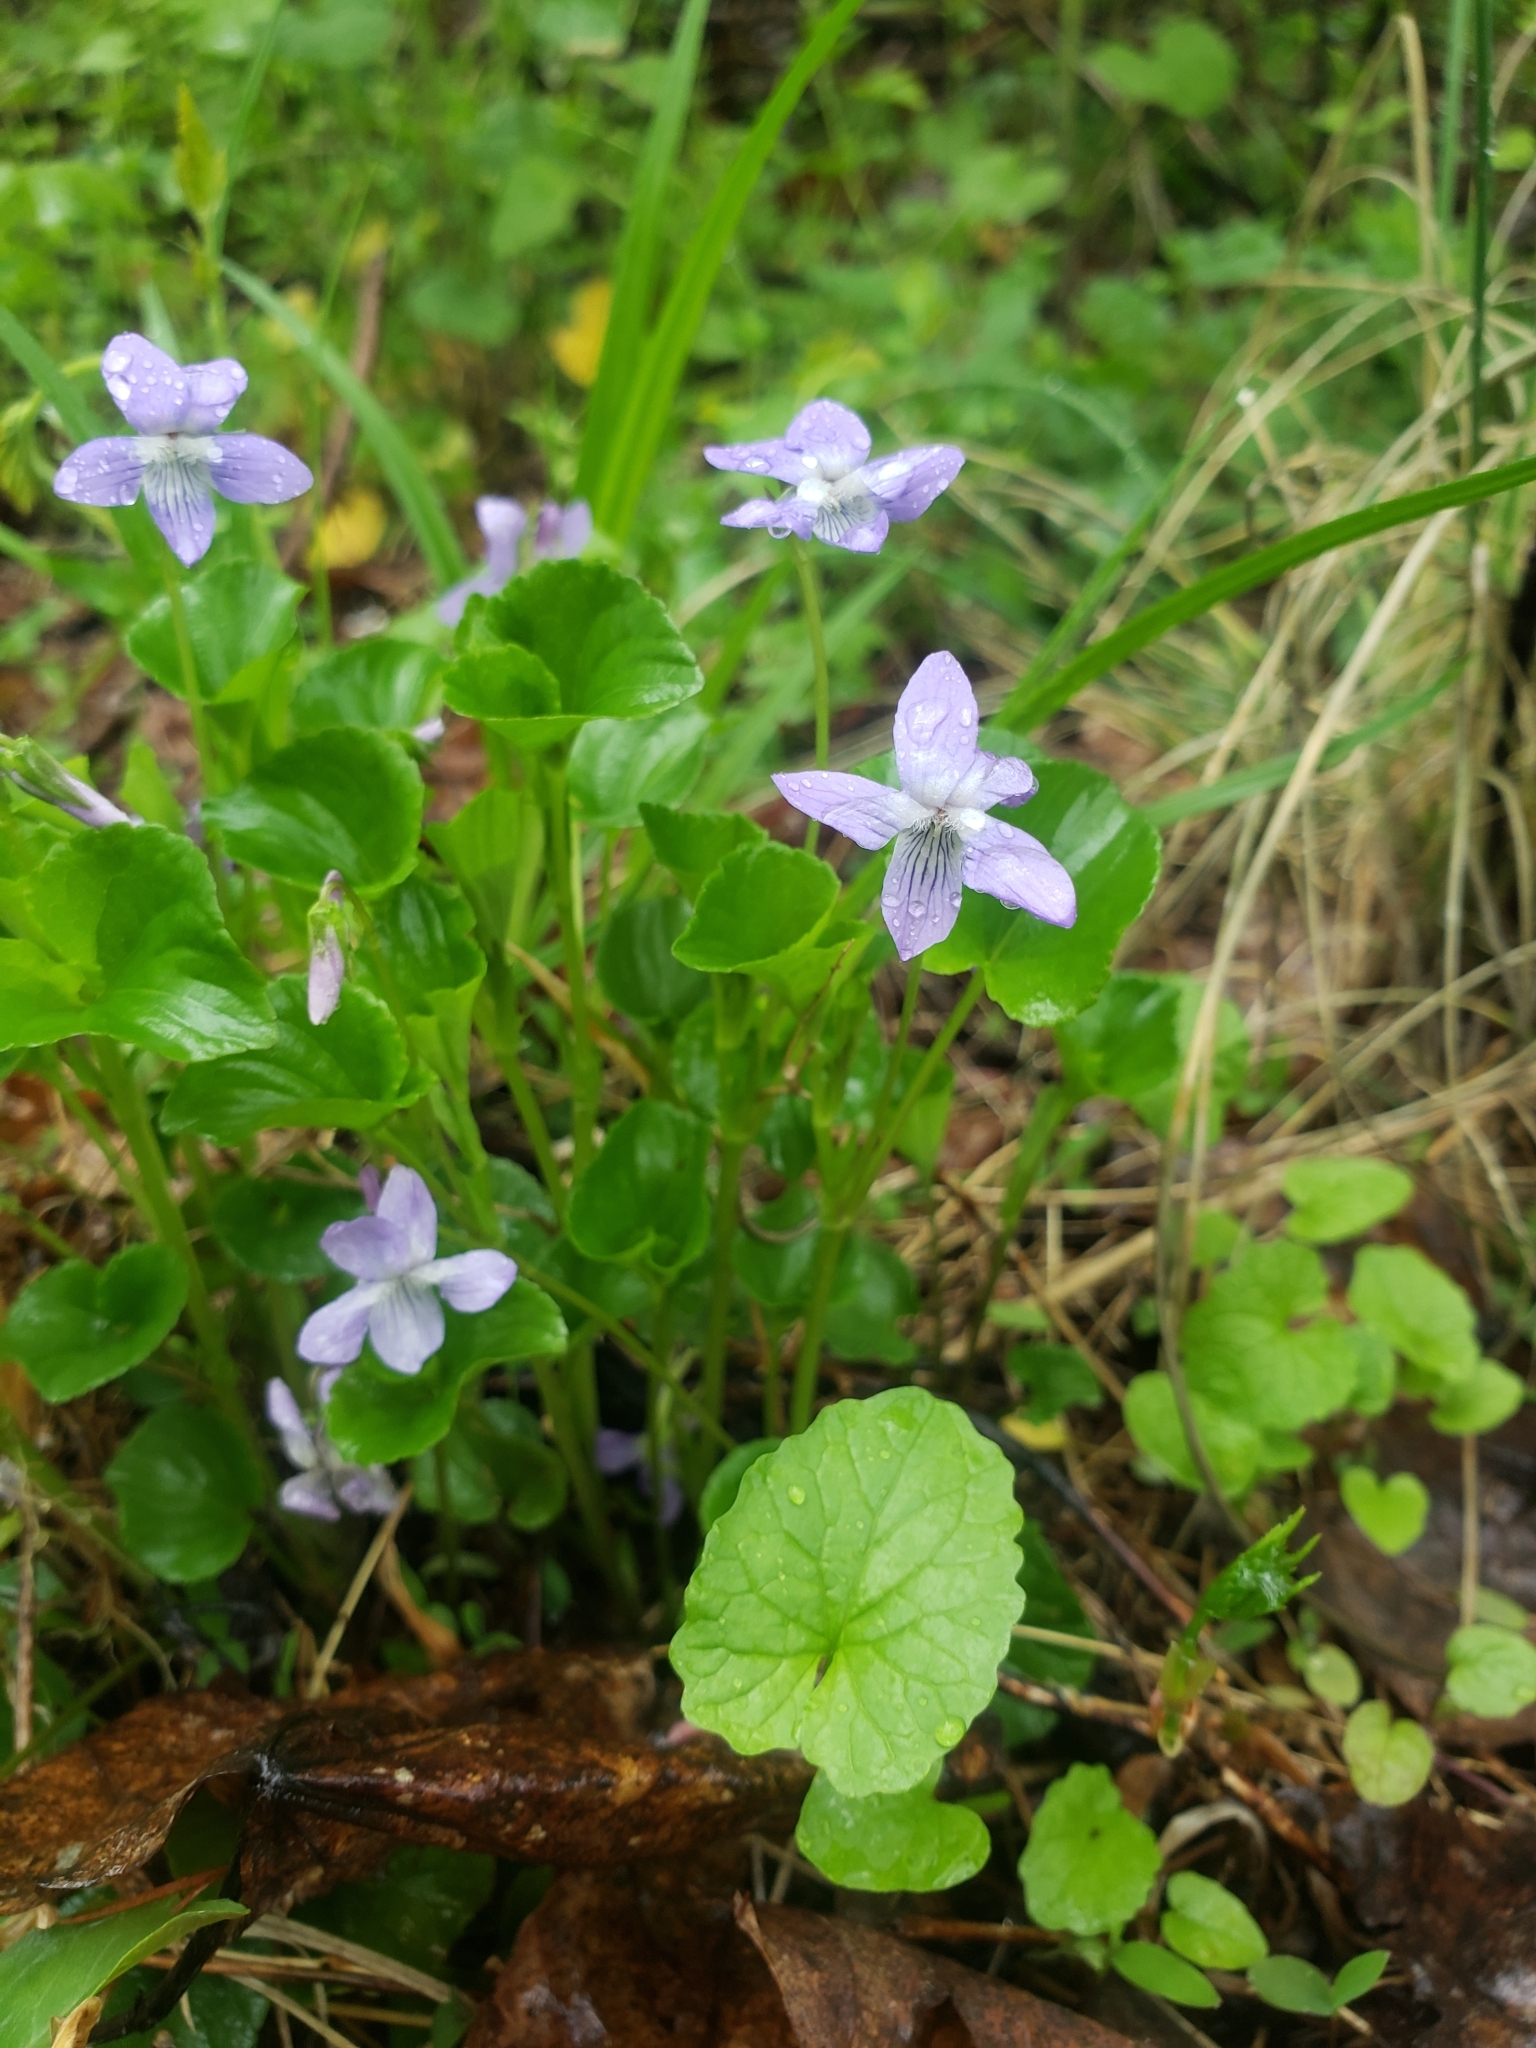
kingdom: Plantae
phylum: Tracheophyta
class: Magnoliopsida
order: Malpighiales
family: Violaceae
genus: Viola
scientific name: Viola labradorica
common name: Labrador violet
